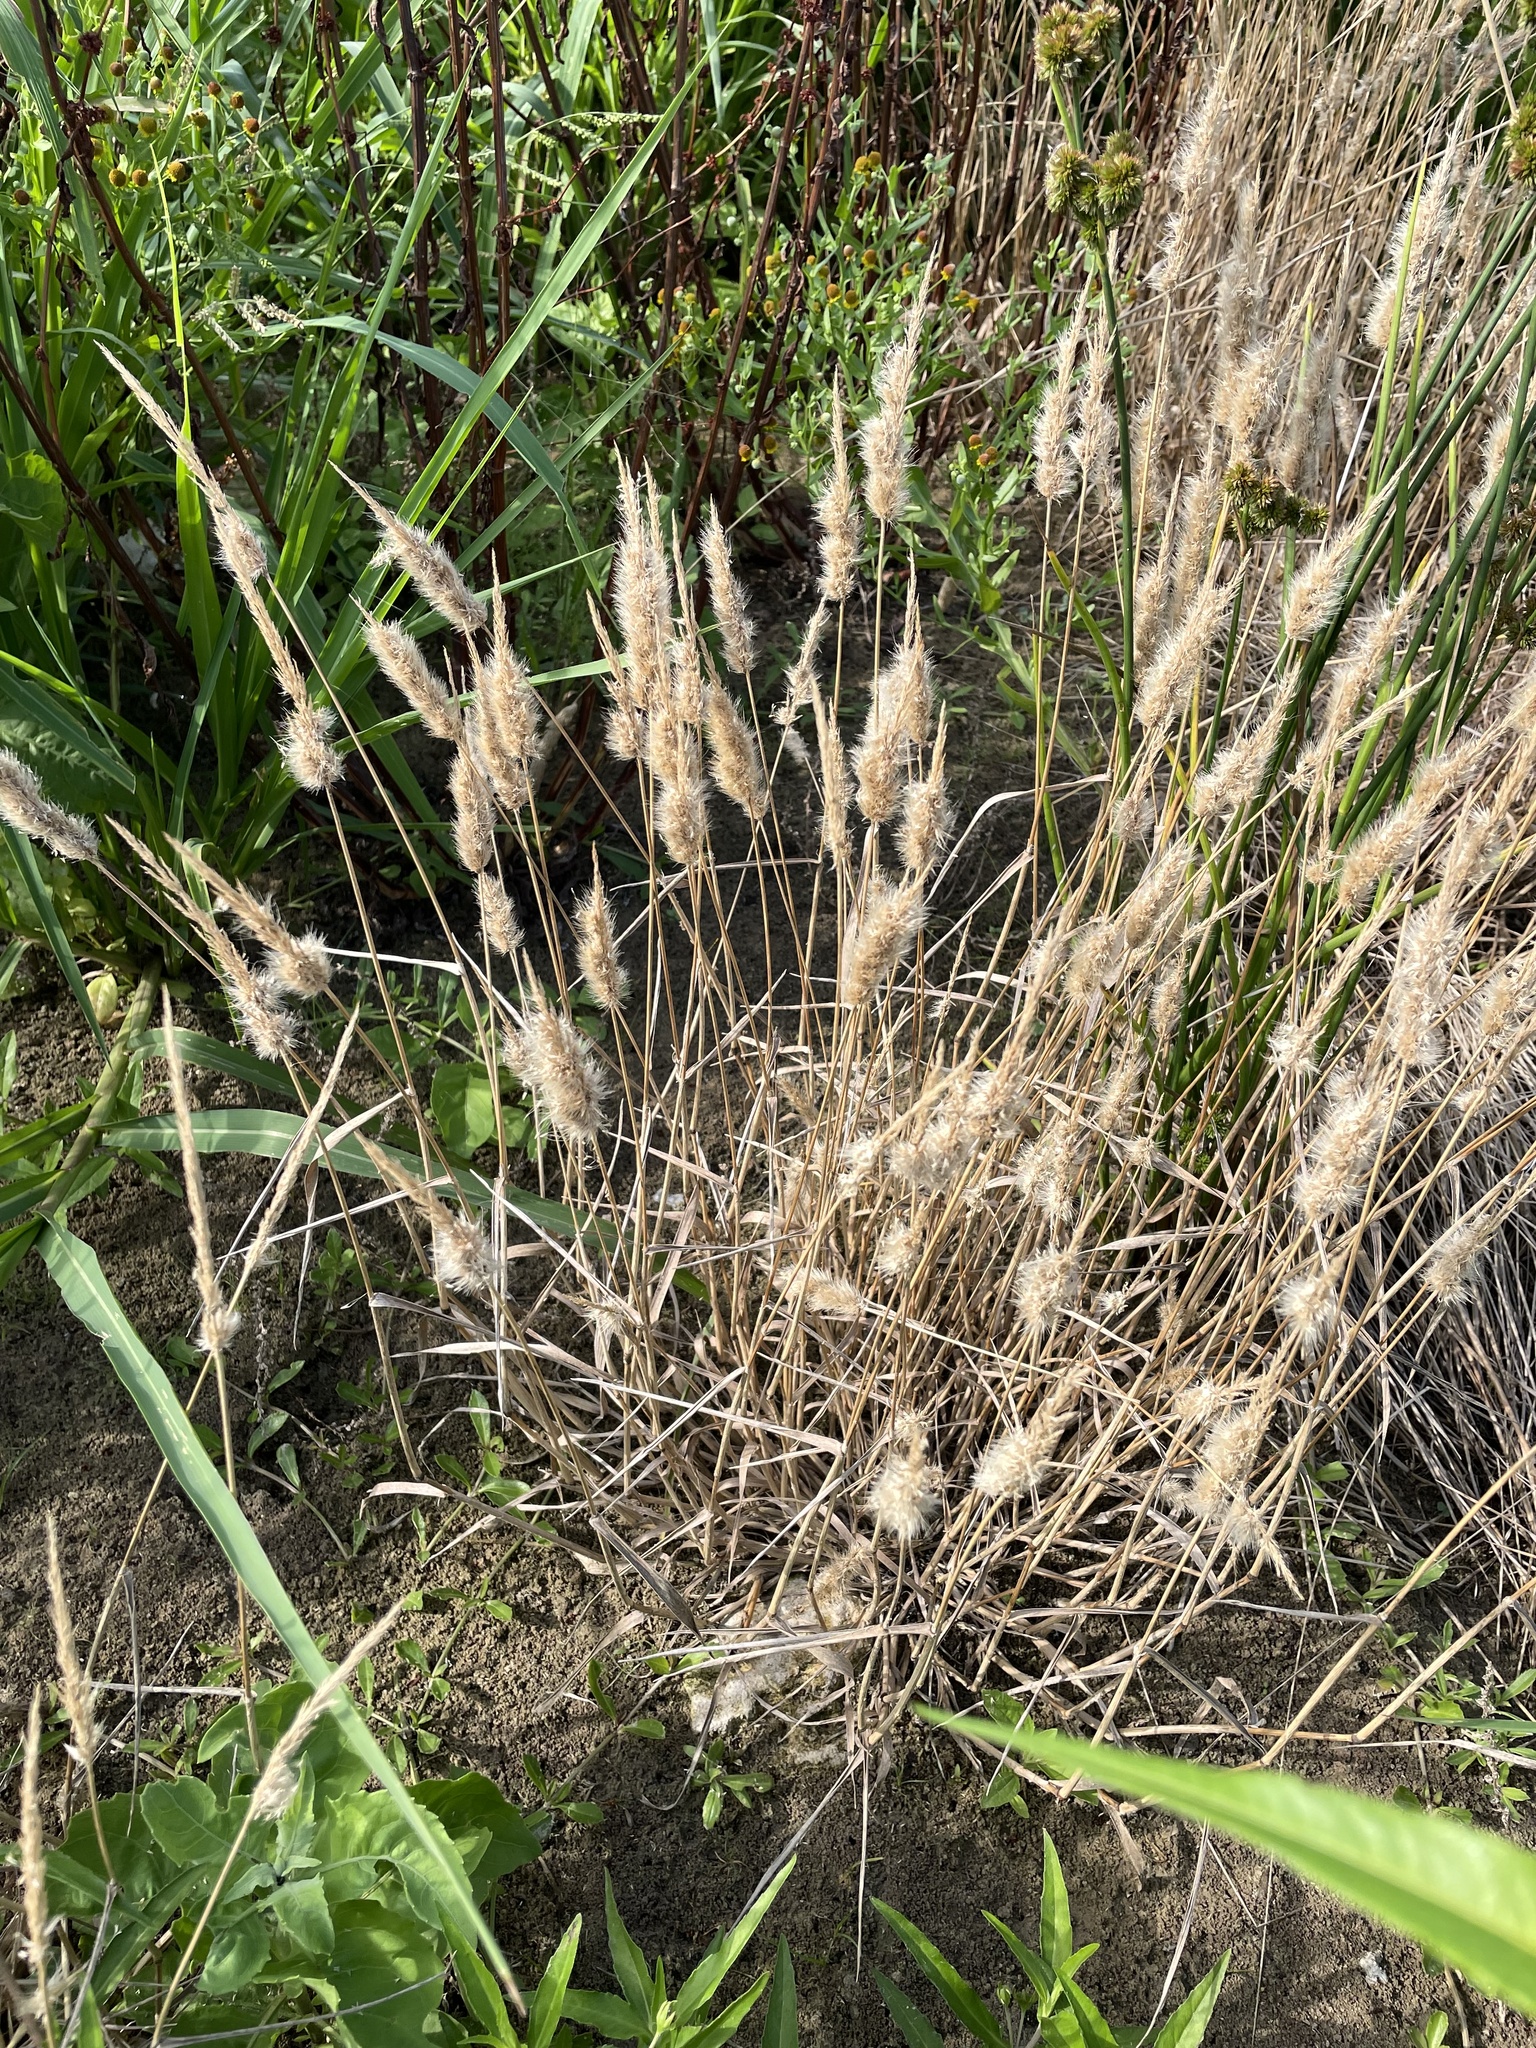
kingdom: Plantae
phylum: Tracheophyta
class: Liliopsida
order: Poales
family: Poaceae
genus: Polypogon
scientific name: Polypogon monspeliensis
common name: Annual rabbitsfoot grass
